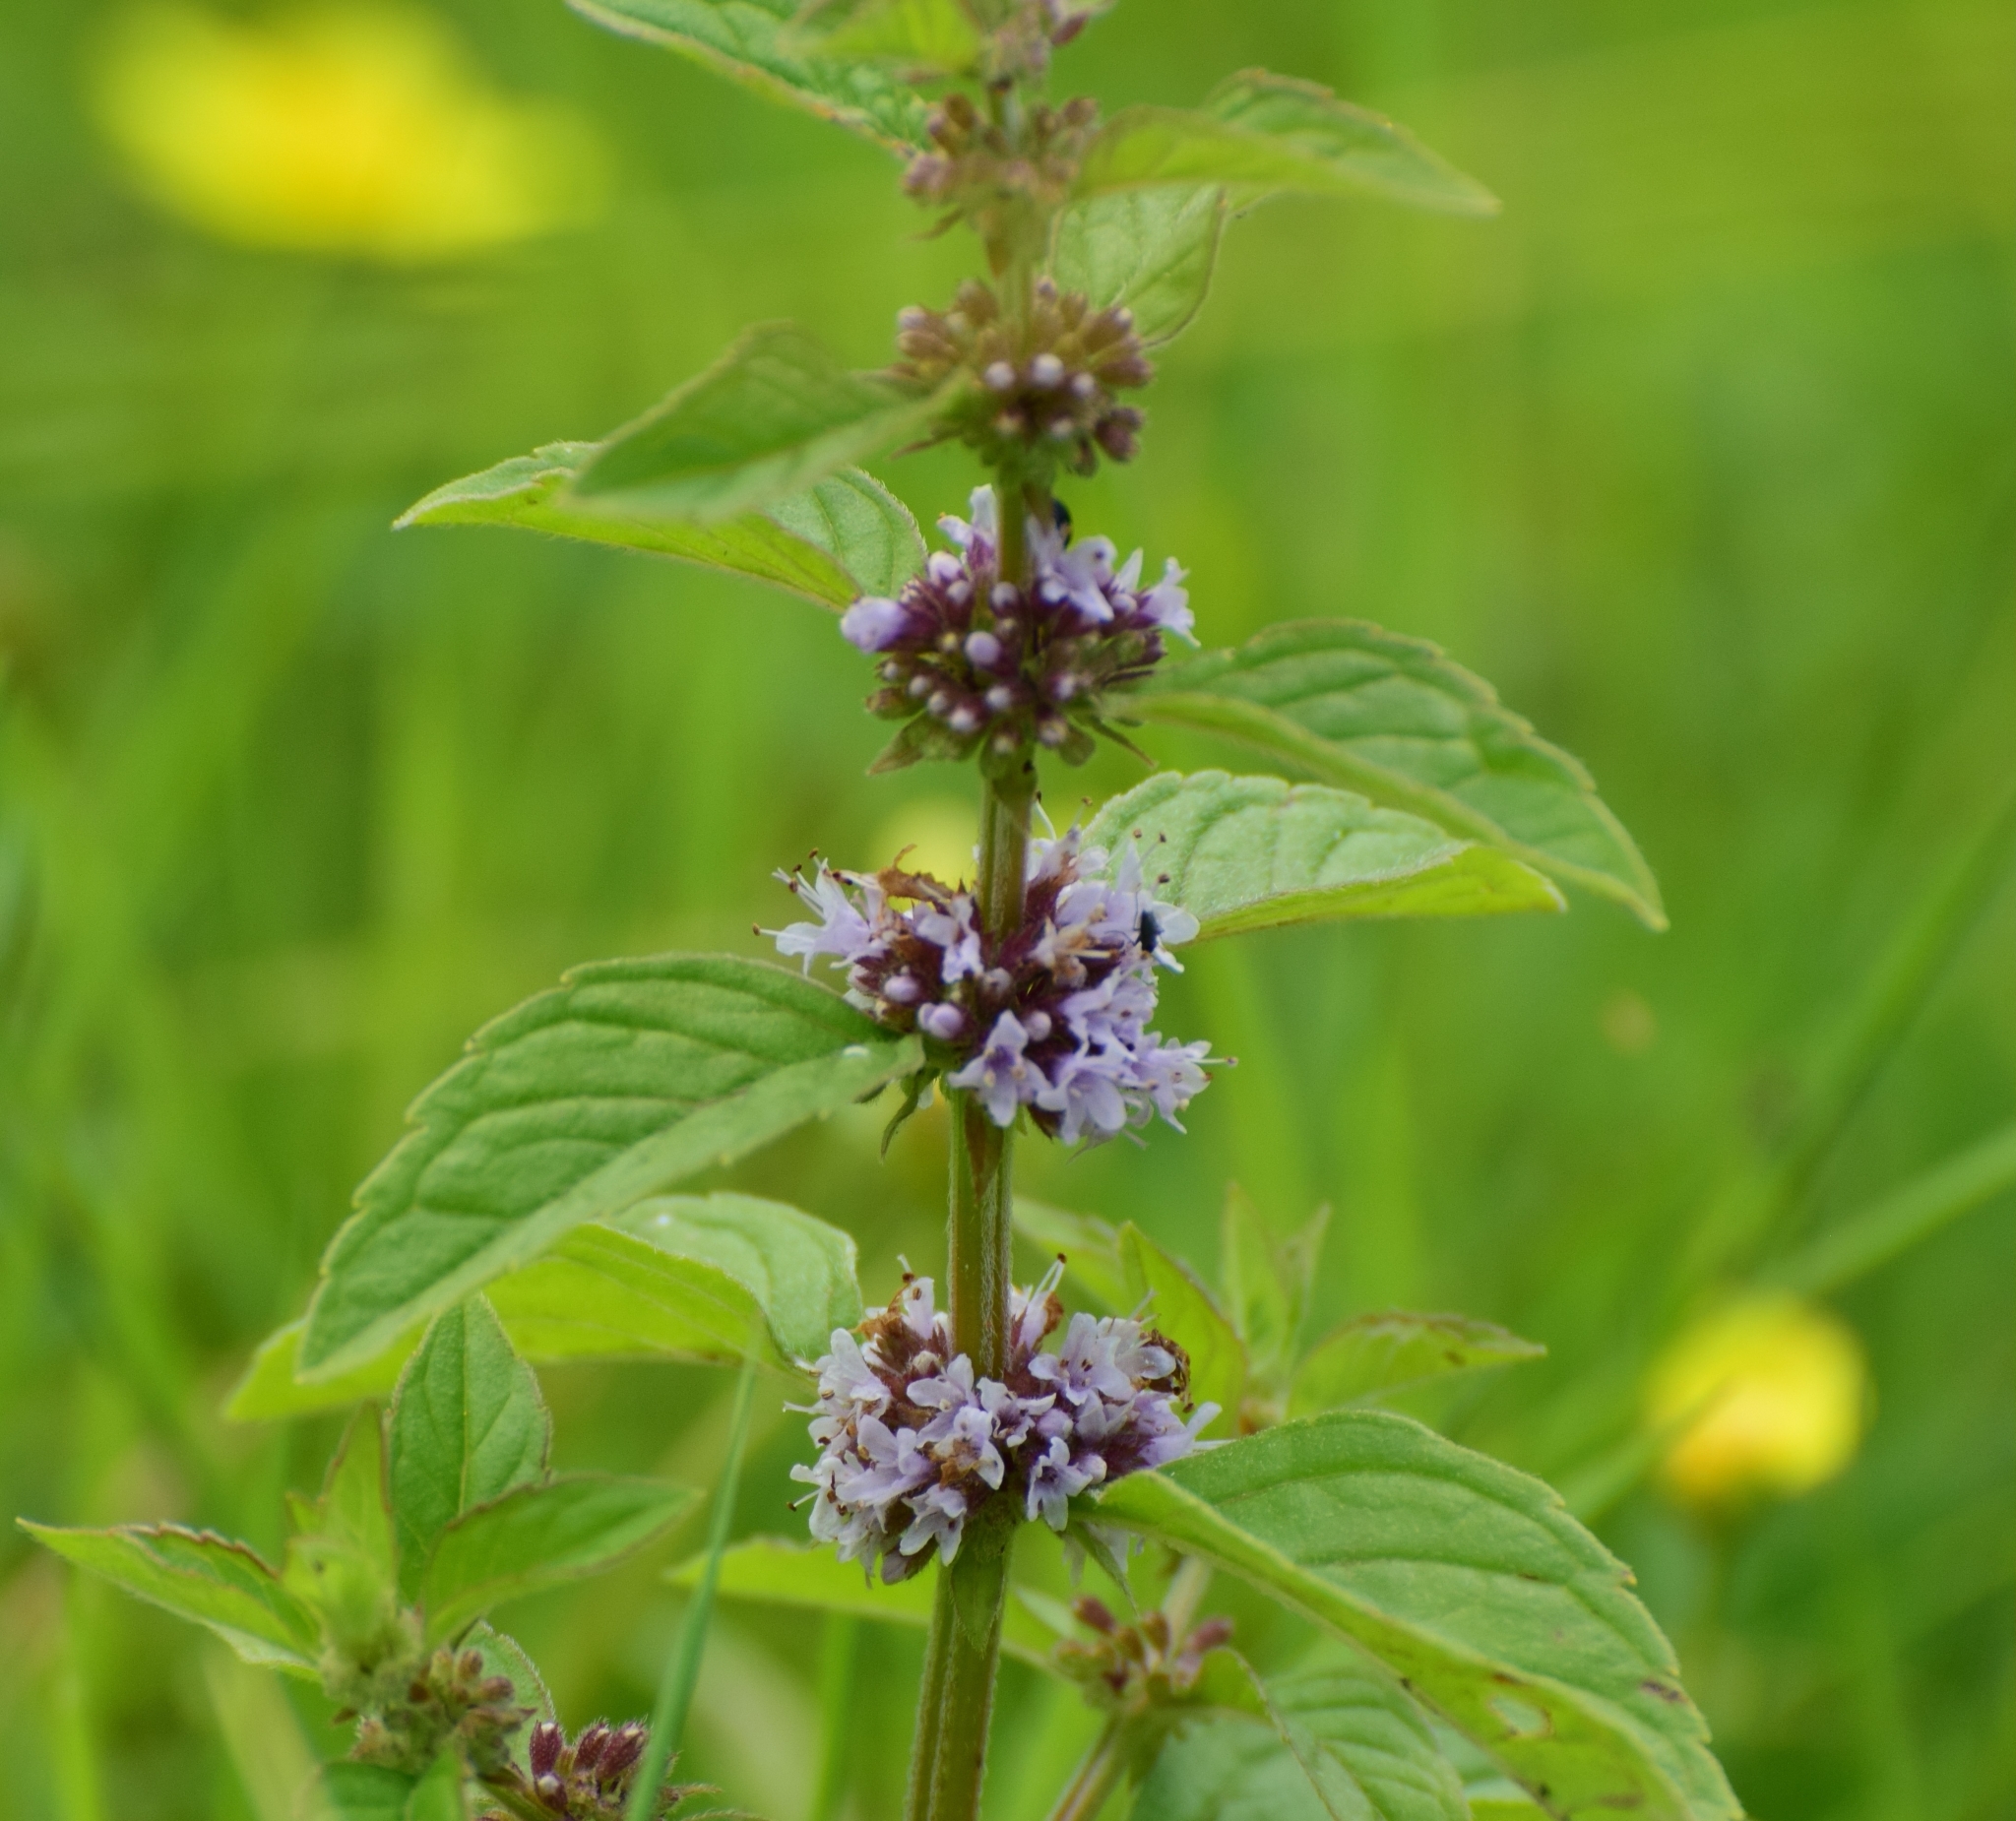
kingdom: Plantae
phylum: Tracheophyta
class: Magnoliopsida
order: Lamiales
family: Lamiaceae
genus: Mentha
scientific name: Mentha arvensis
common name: Corn mint
